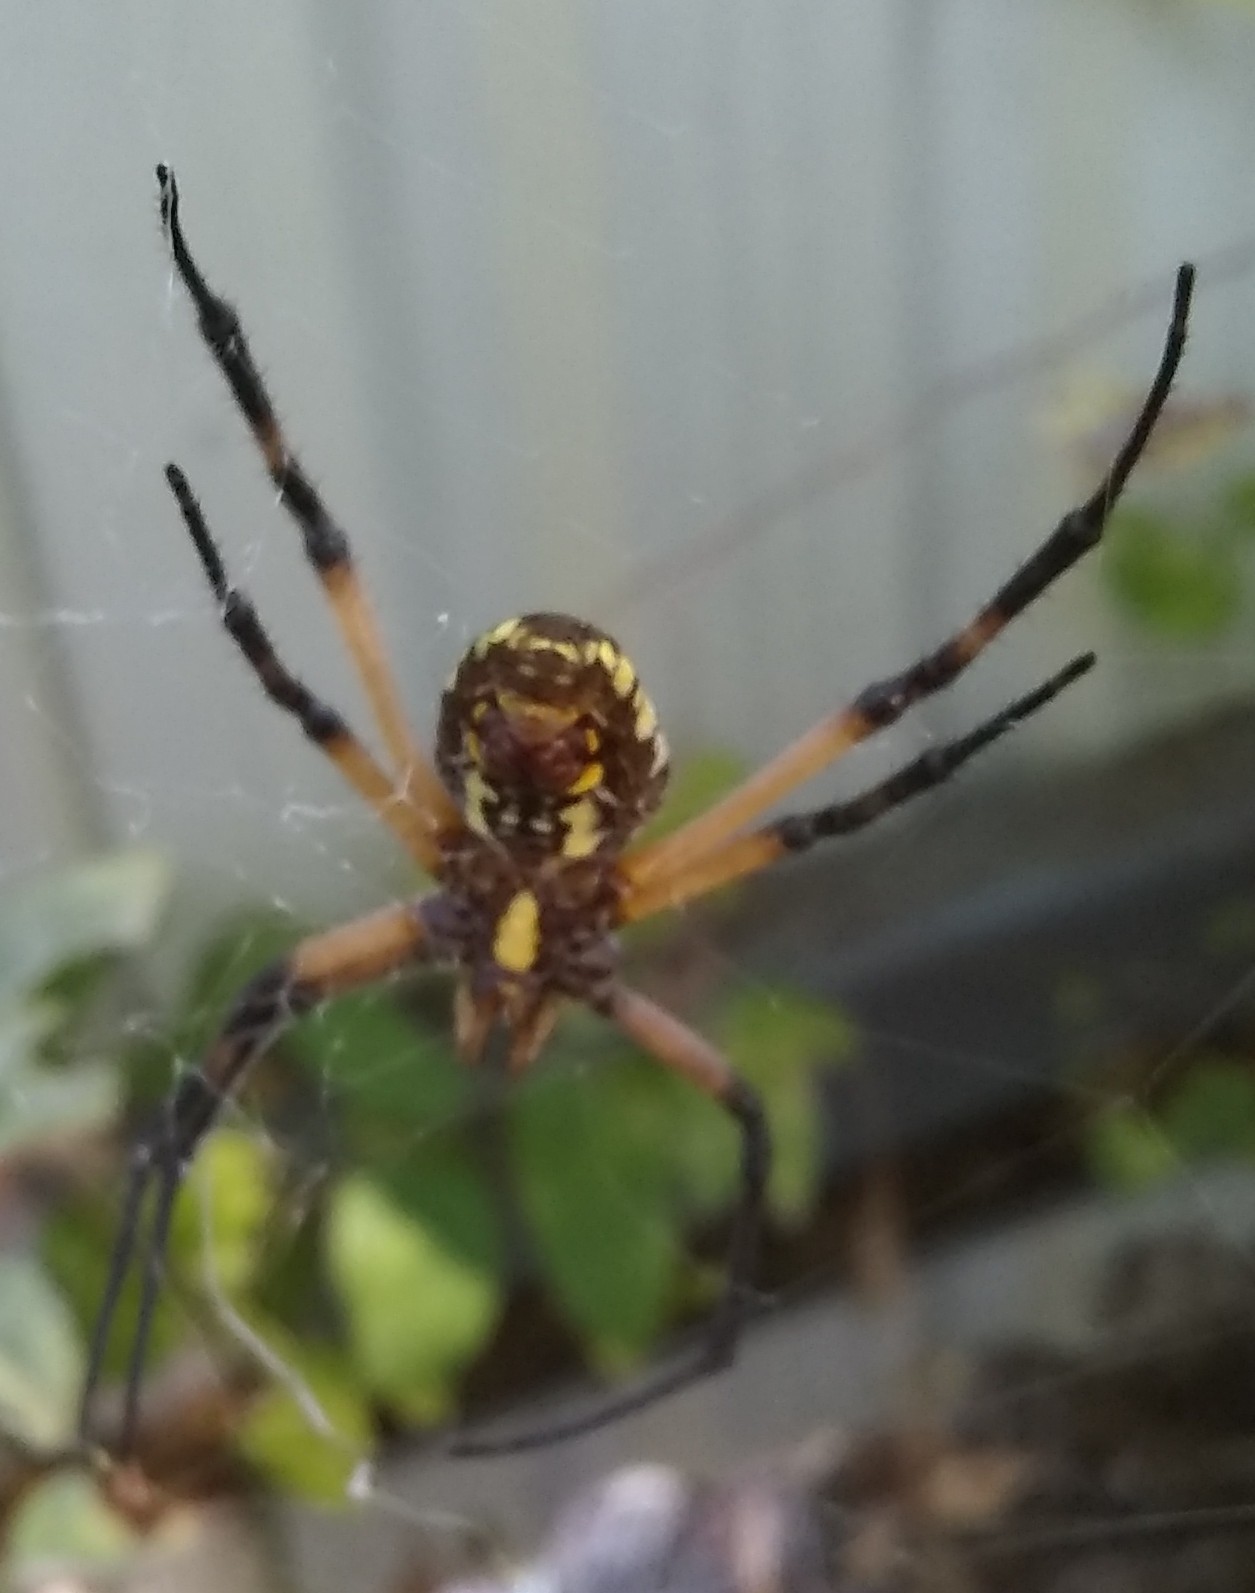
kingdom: Animalia
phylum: Arthropoda
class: Arachnida
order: Araneae
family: Araneidae
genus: Argiope
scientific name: Argiope aurantia
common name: Orb weavers
